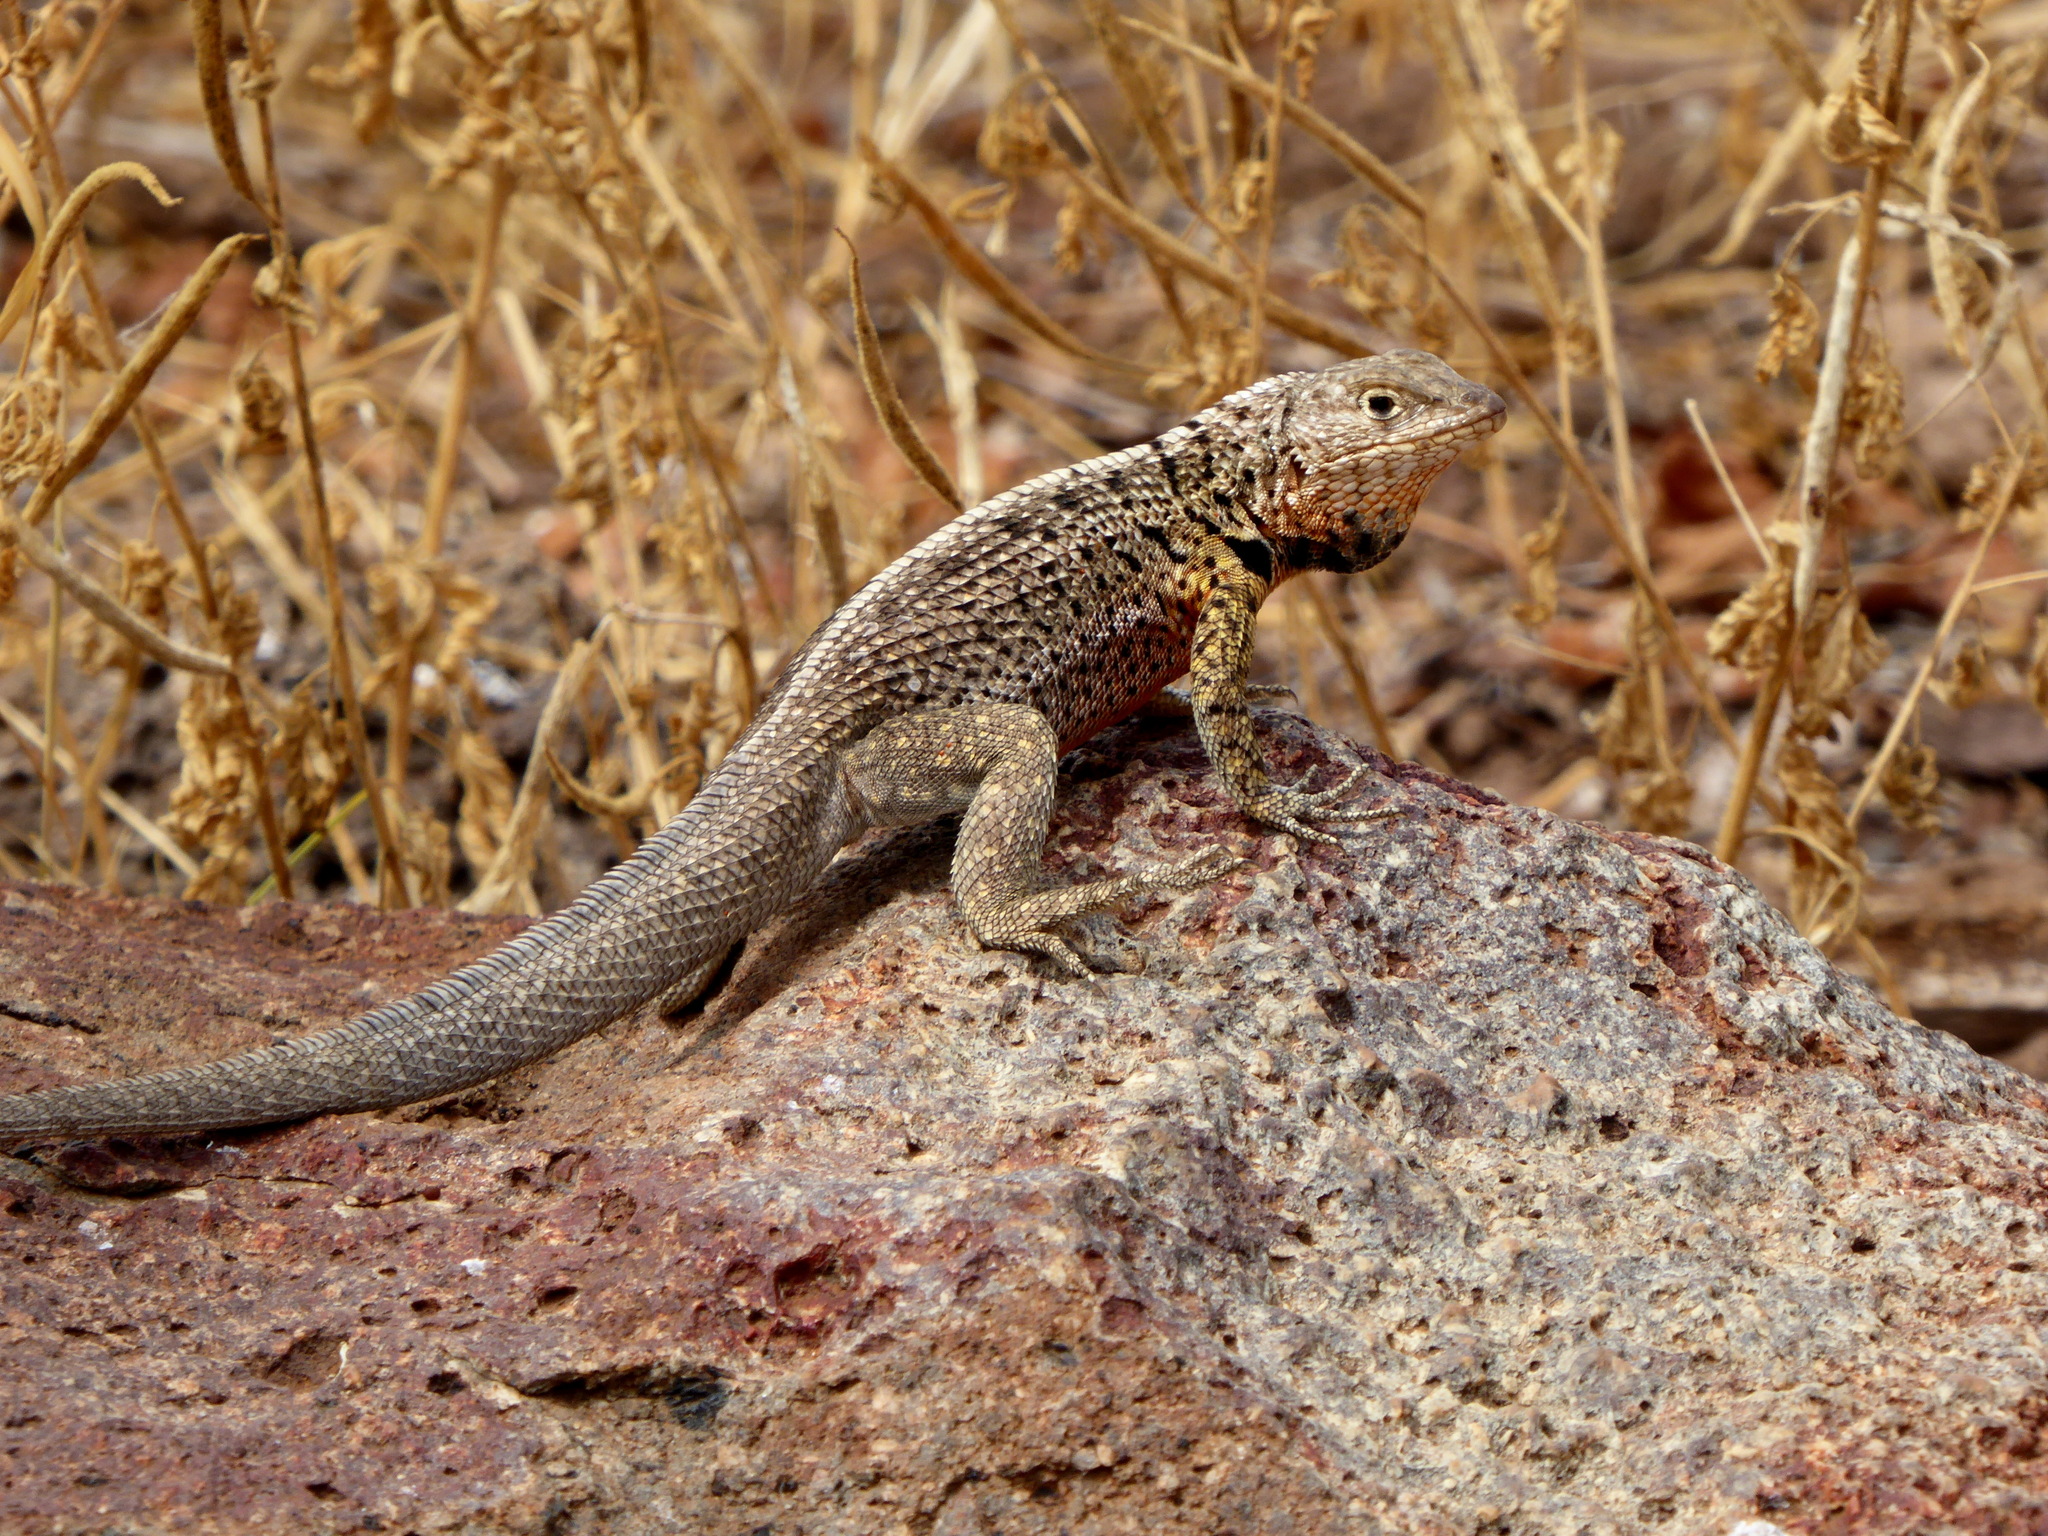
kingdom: Animalia
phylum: Chordata
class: Squamata
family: Tropiduridae
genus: Microlophus
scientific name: Microlophus indefatigabilis
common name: Galapagos lava lizard
